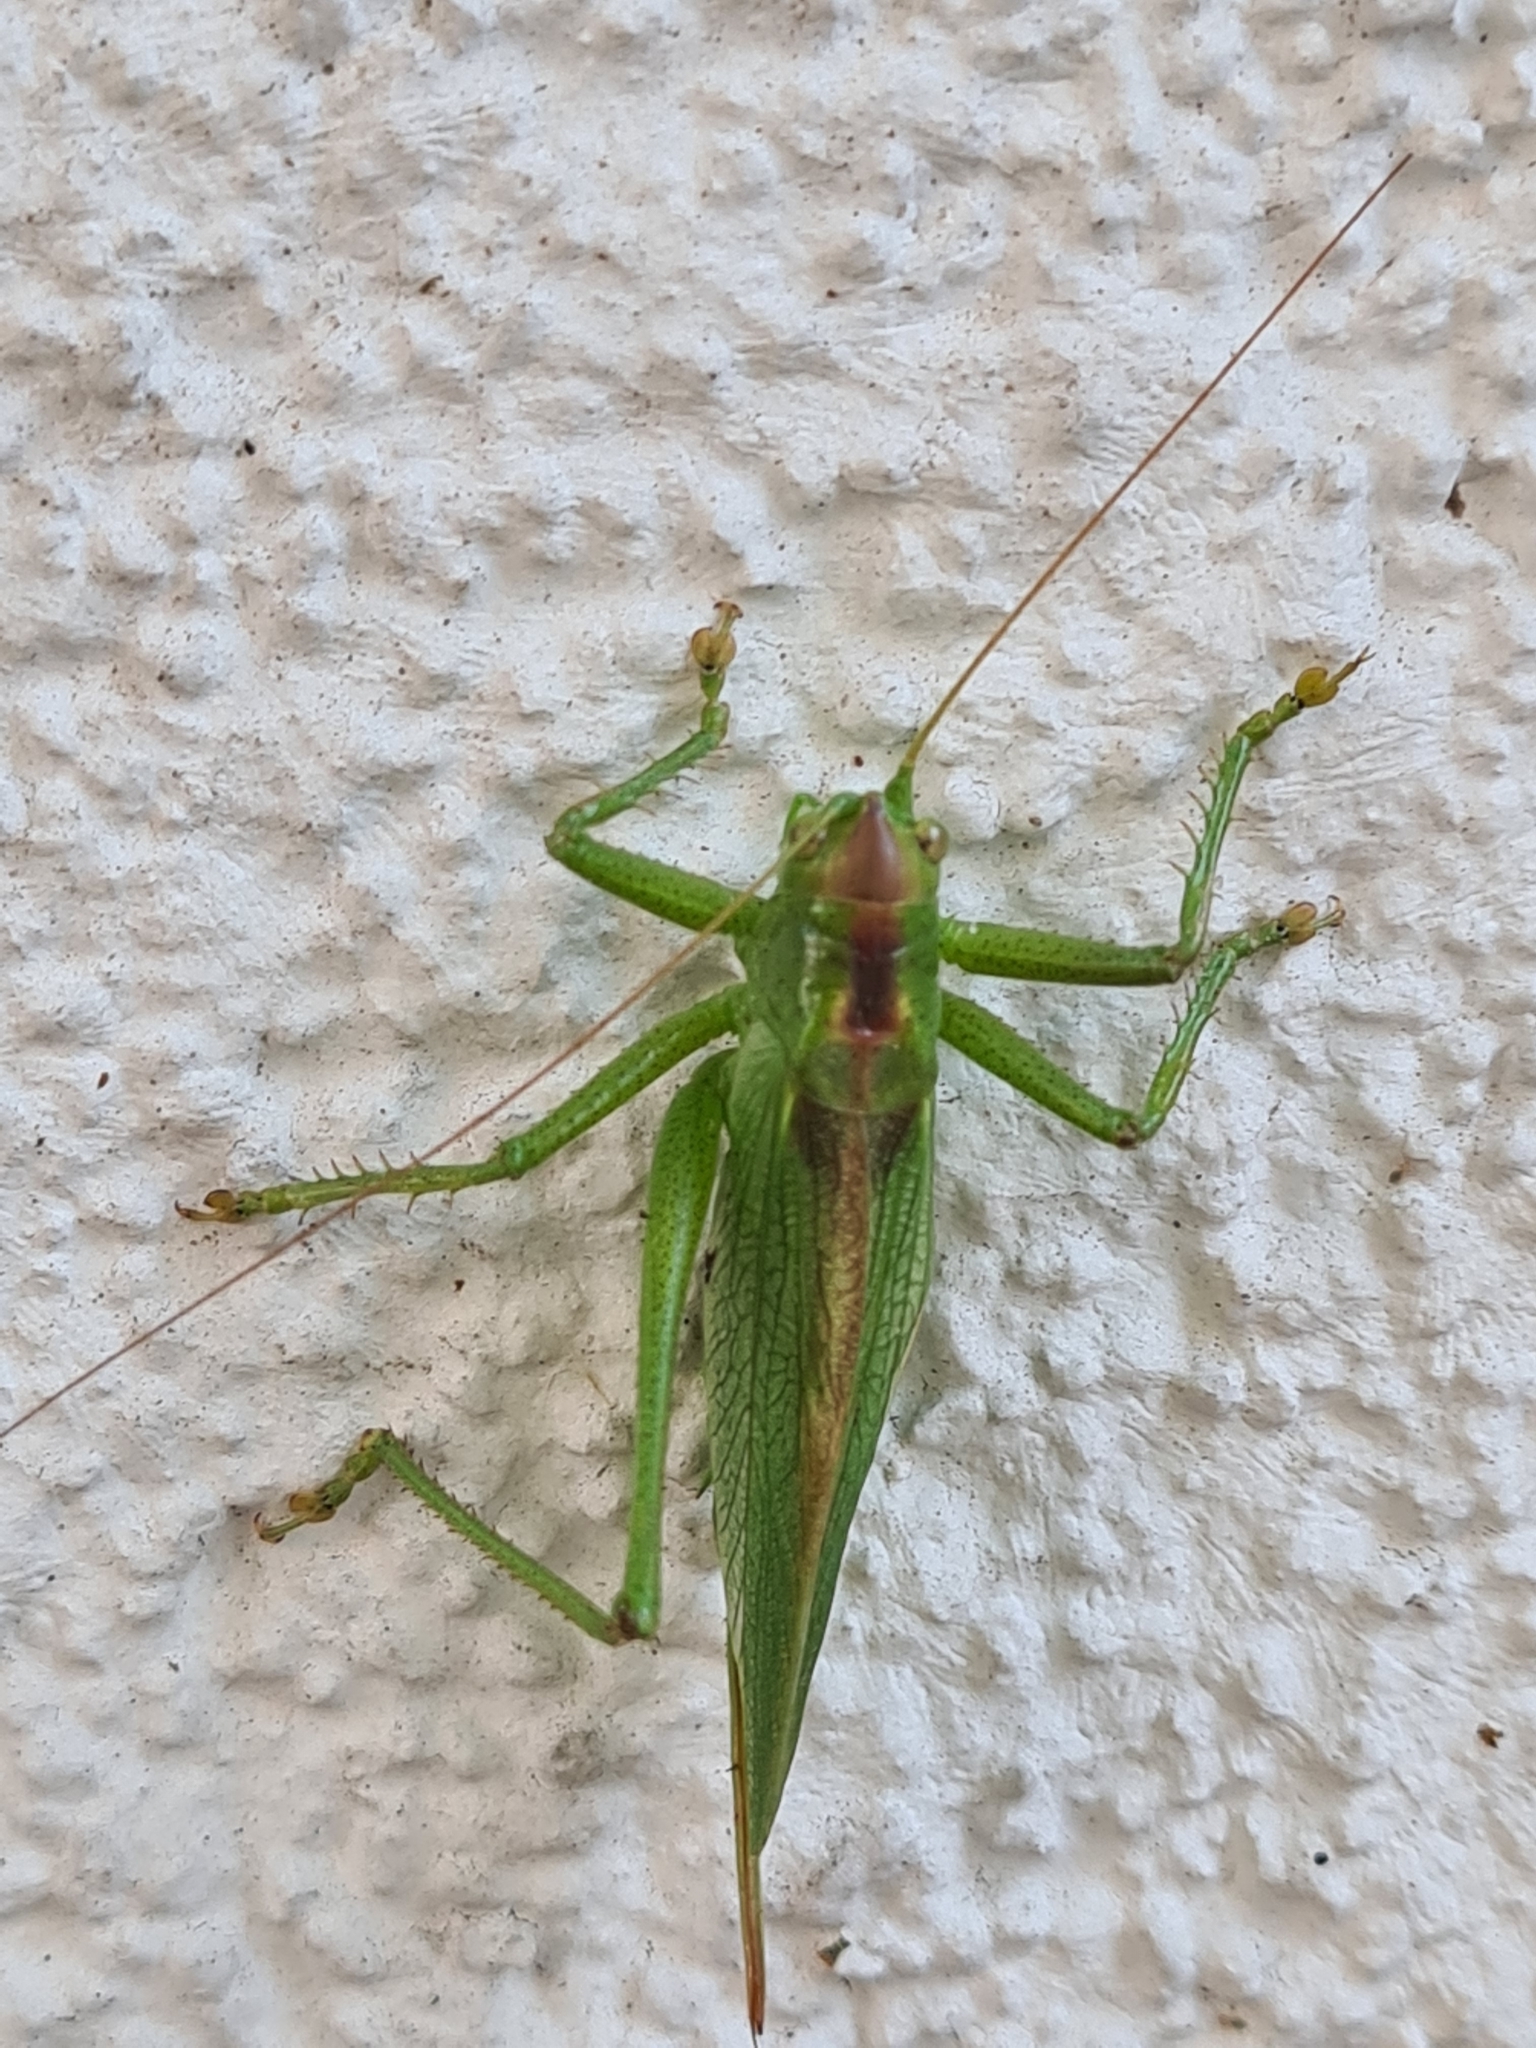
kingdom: Animalia
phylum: Arthropoda
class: Insecta
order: Orthoptera
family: Tettigoniidae
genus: Tettigonia
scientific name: Tettigonia cantans
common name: Upland green bush-cricket
